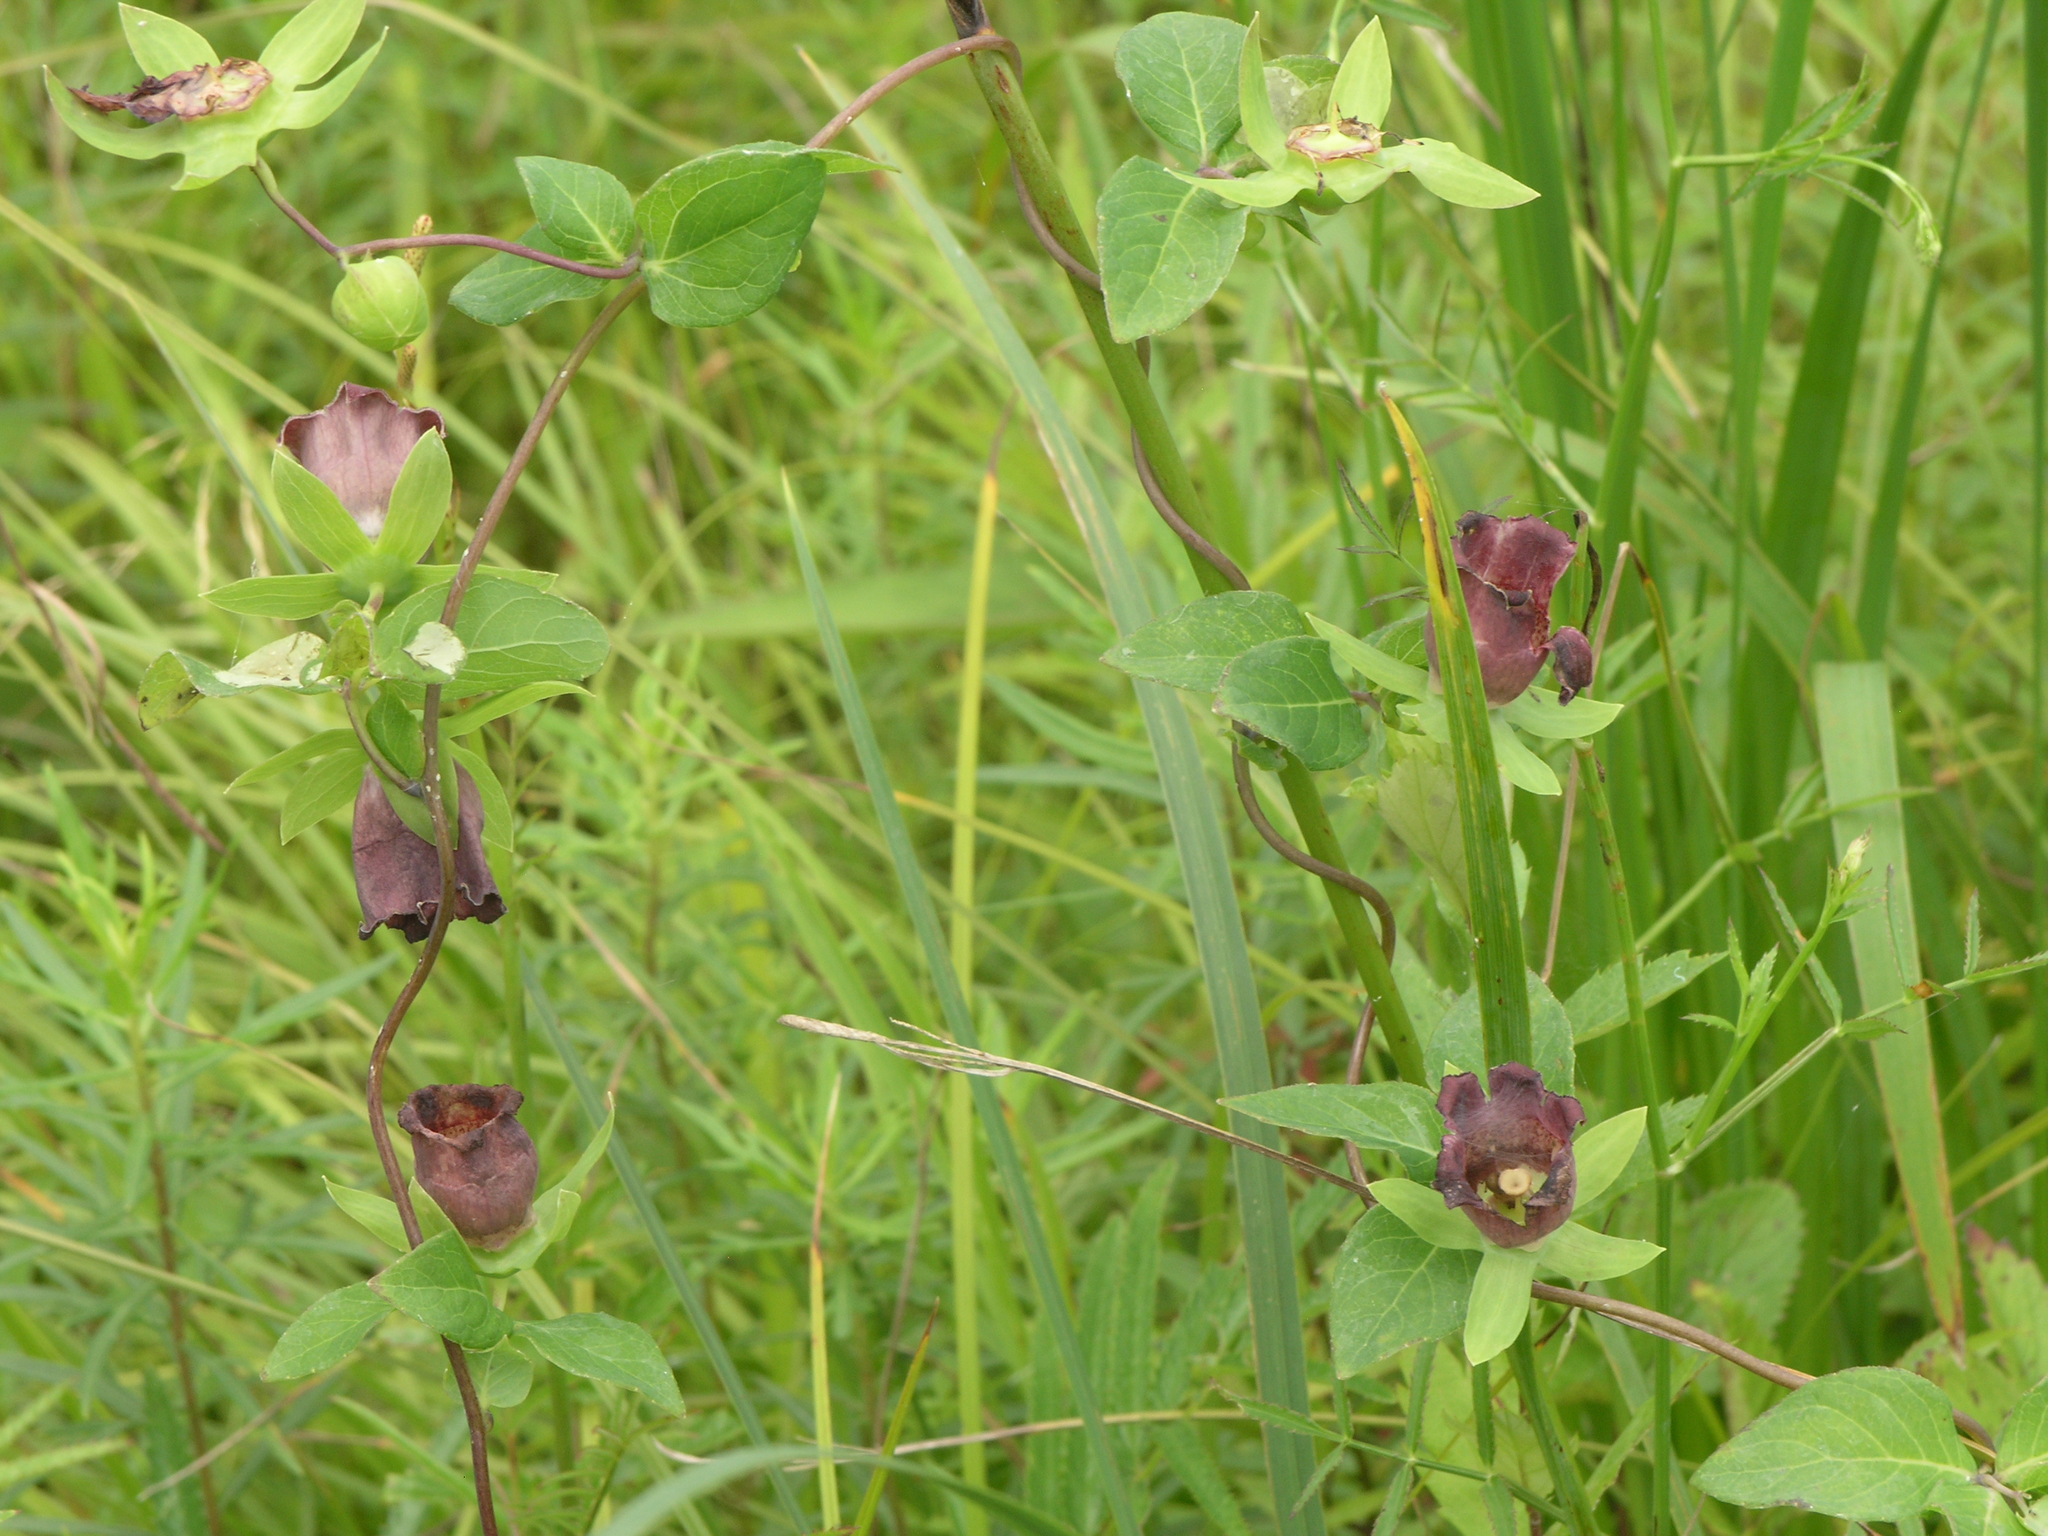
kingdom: Plantae
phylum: Tracheophyta
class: Magnoliopsida
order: Asterales
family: Campanulaceae
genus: Codonopsis
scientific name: Codonopsis ussuriensis
